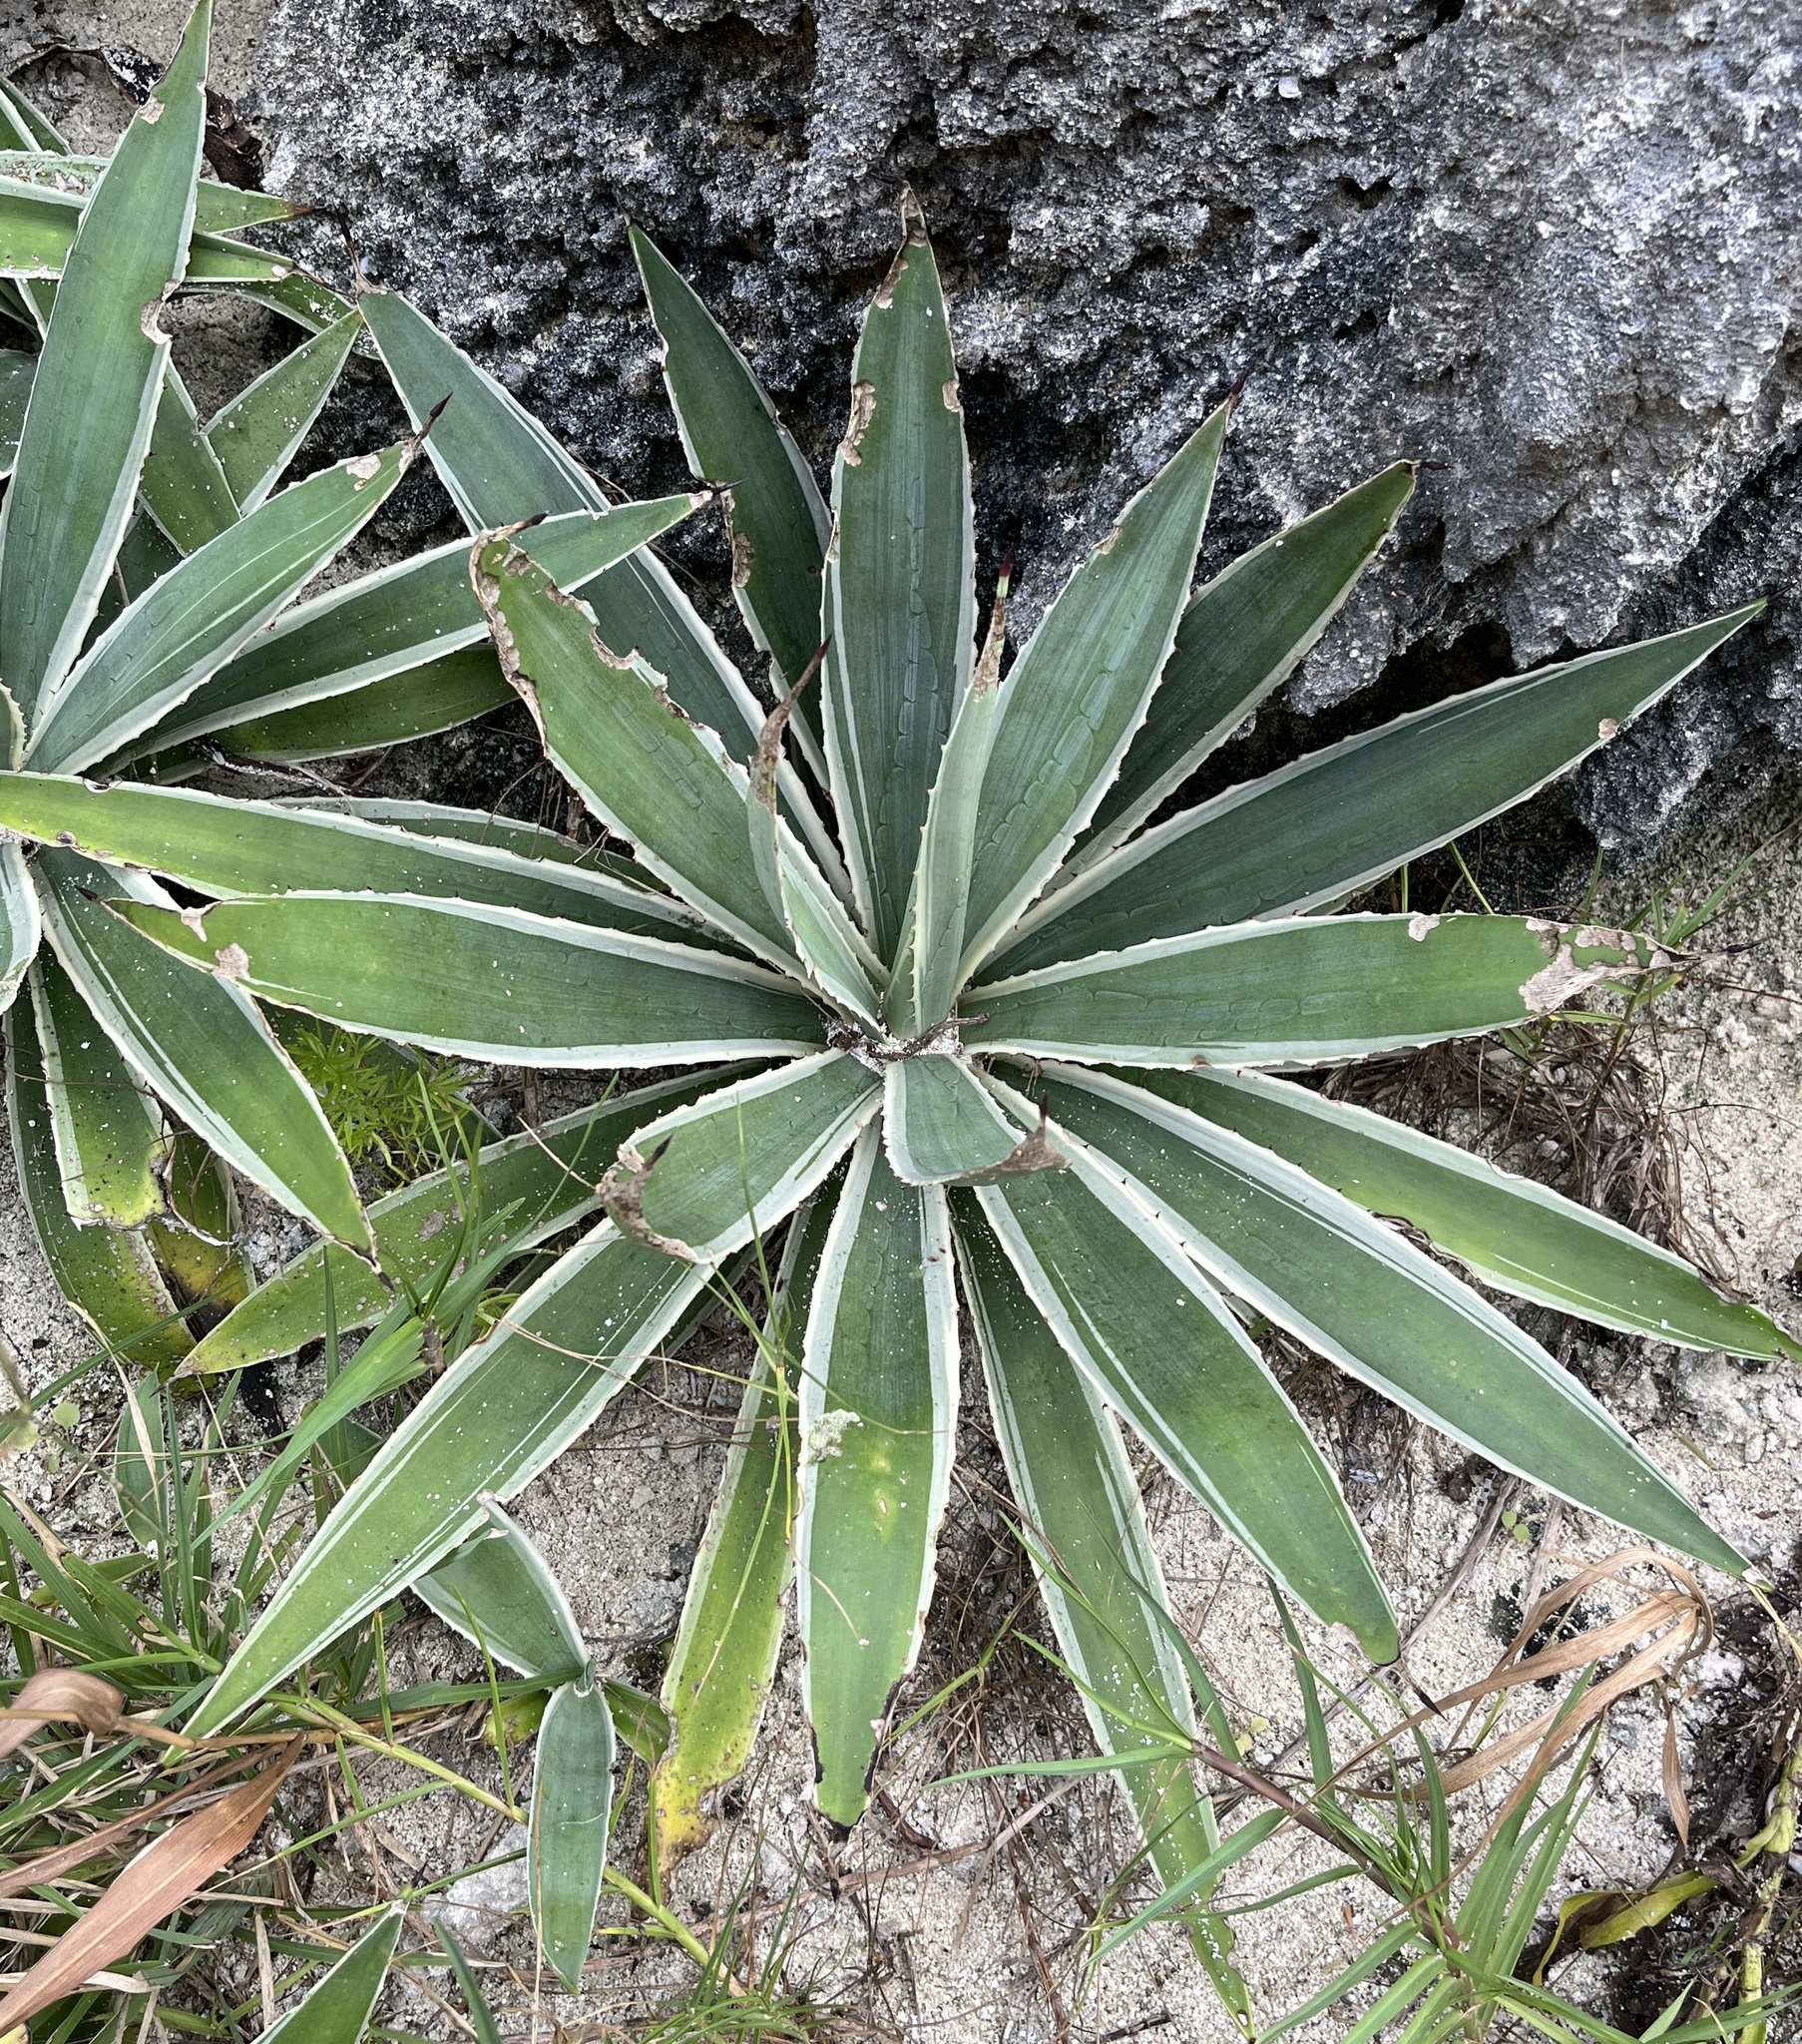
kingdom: Plantae
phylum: Tracheophyta
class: Liliopsida
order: Asparagales
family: Asparagaceae
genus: Agave
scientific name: Agave angustifolia
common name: Mescal agave
